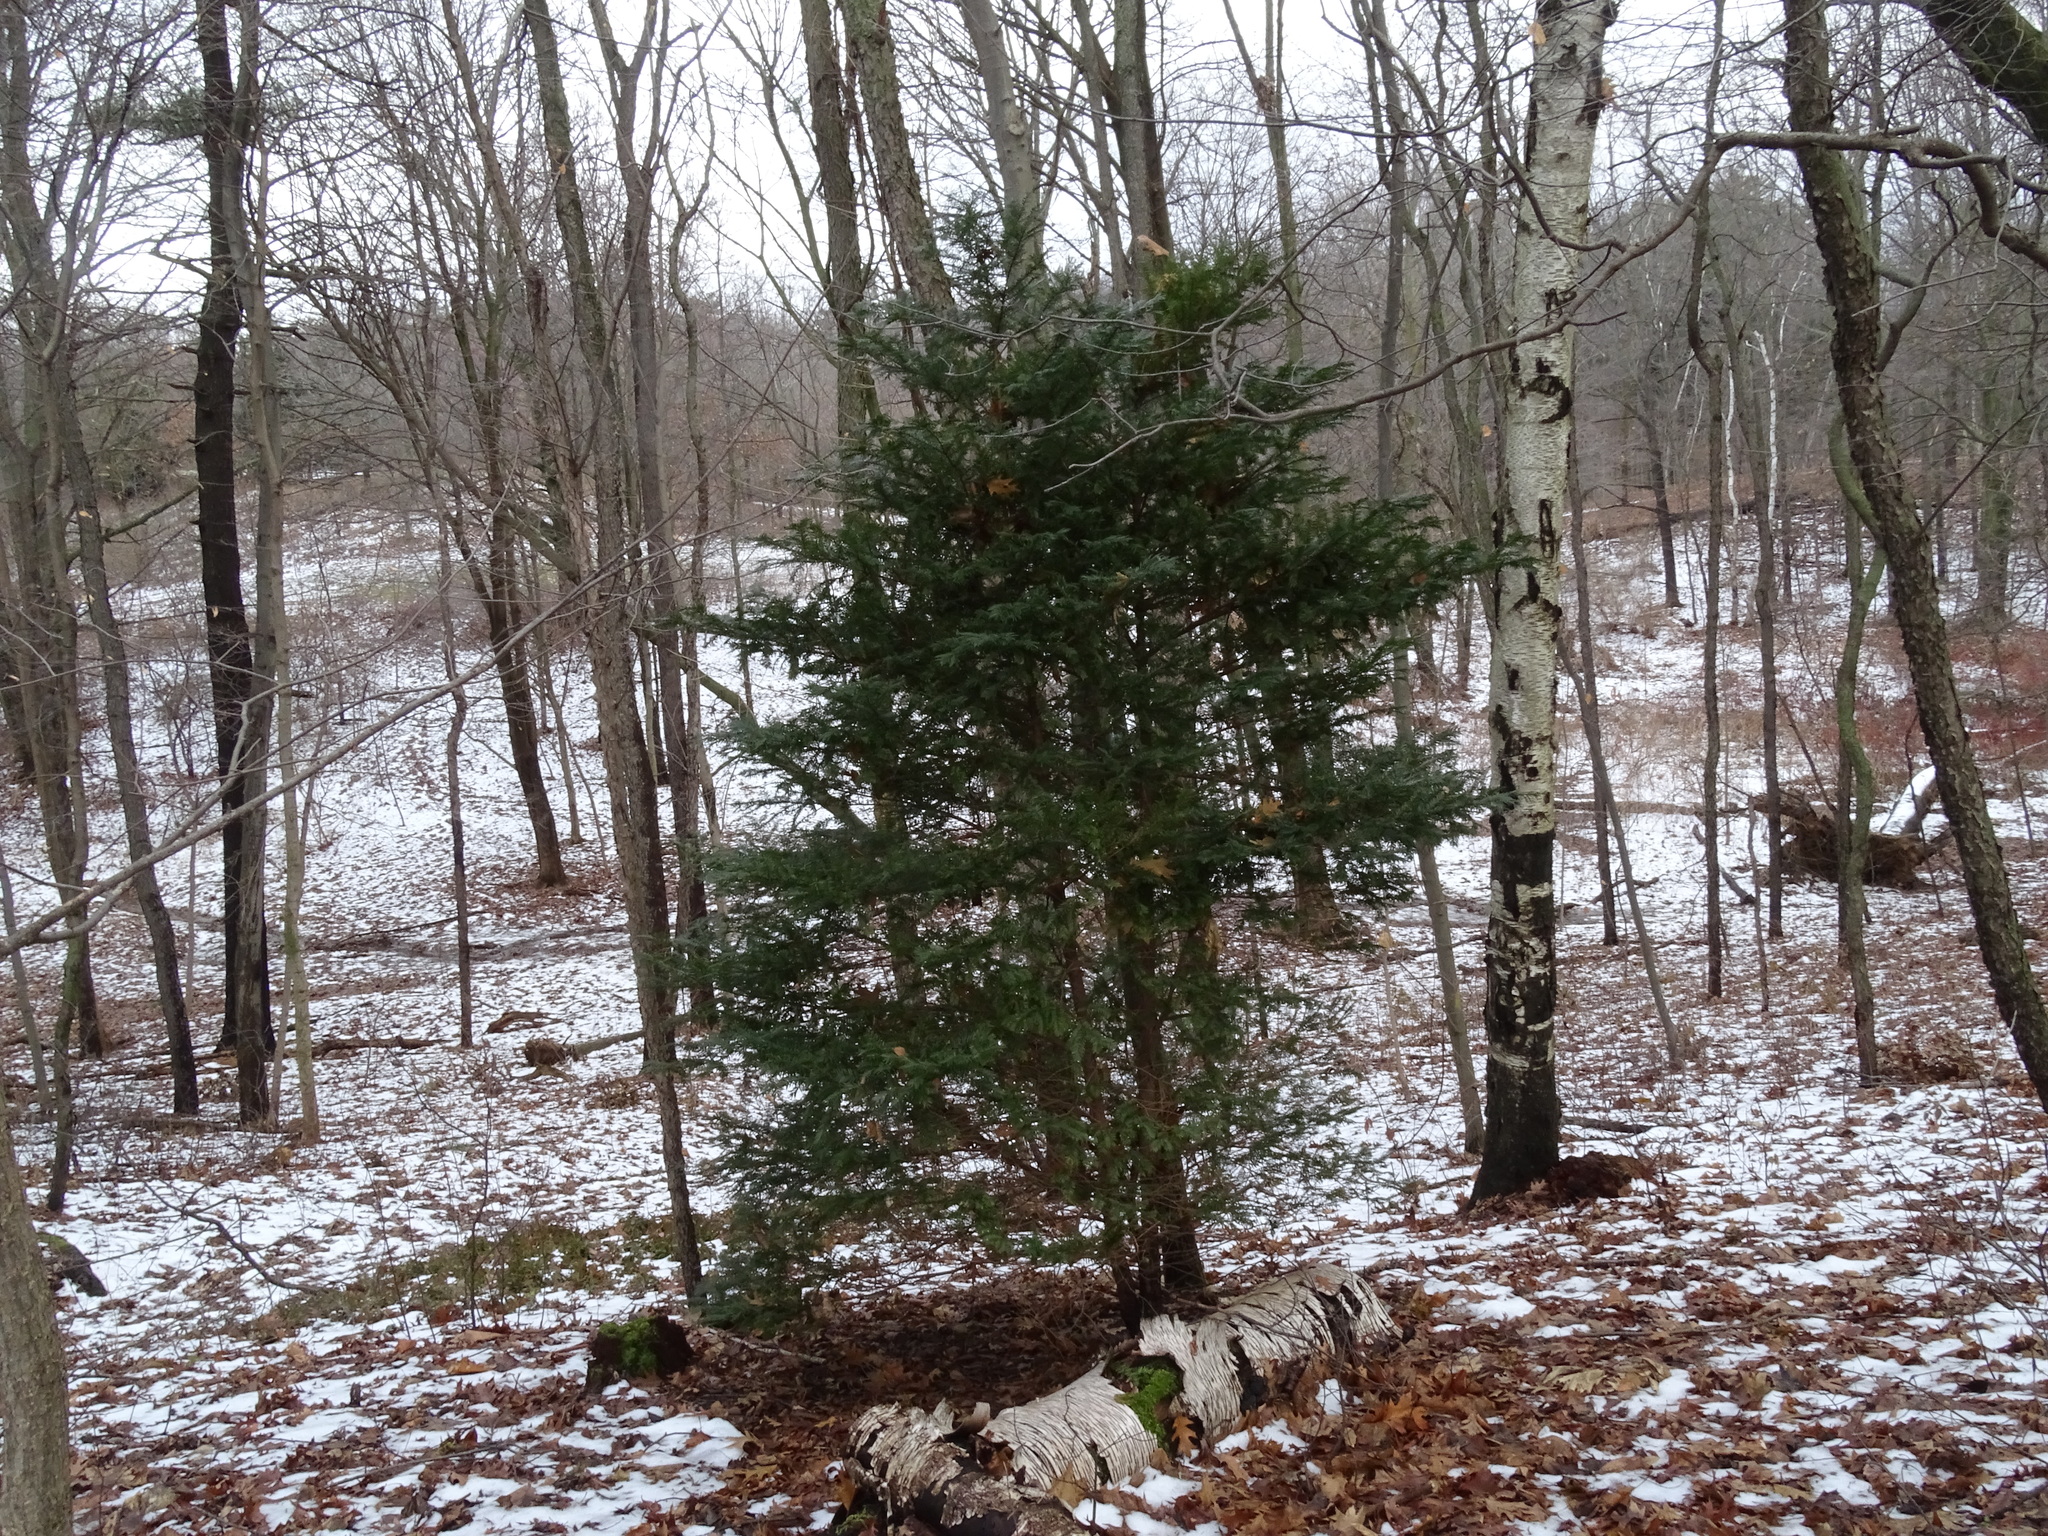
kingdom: Plantae
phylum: Tracheophyta
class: Pinopsida
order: Pinales
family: Taxaceae
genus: Taxus
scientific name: Taxus cuspidata
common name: Japanese yew
